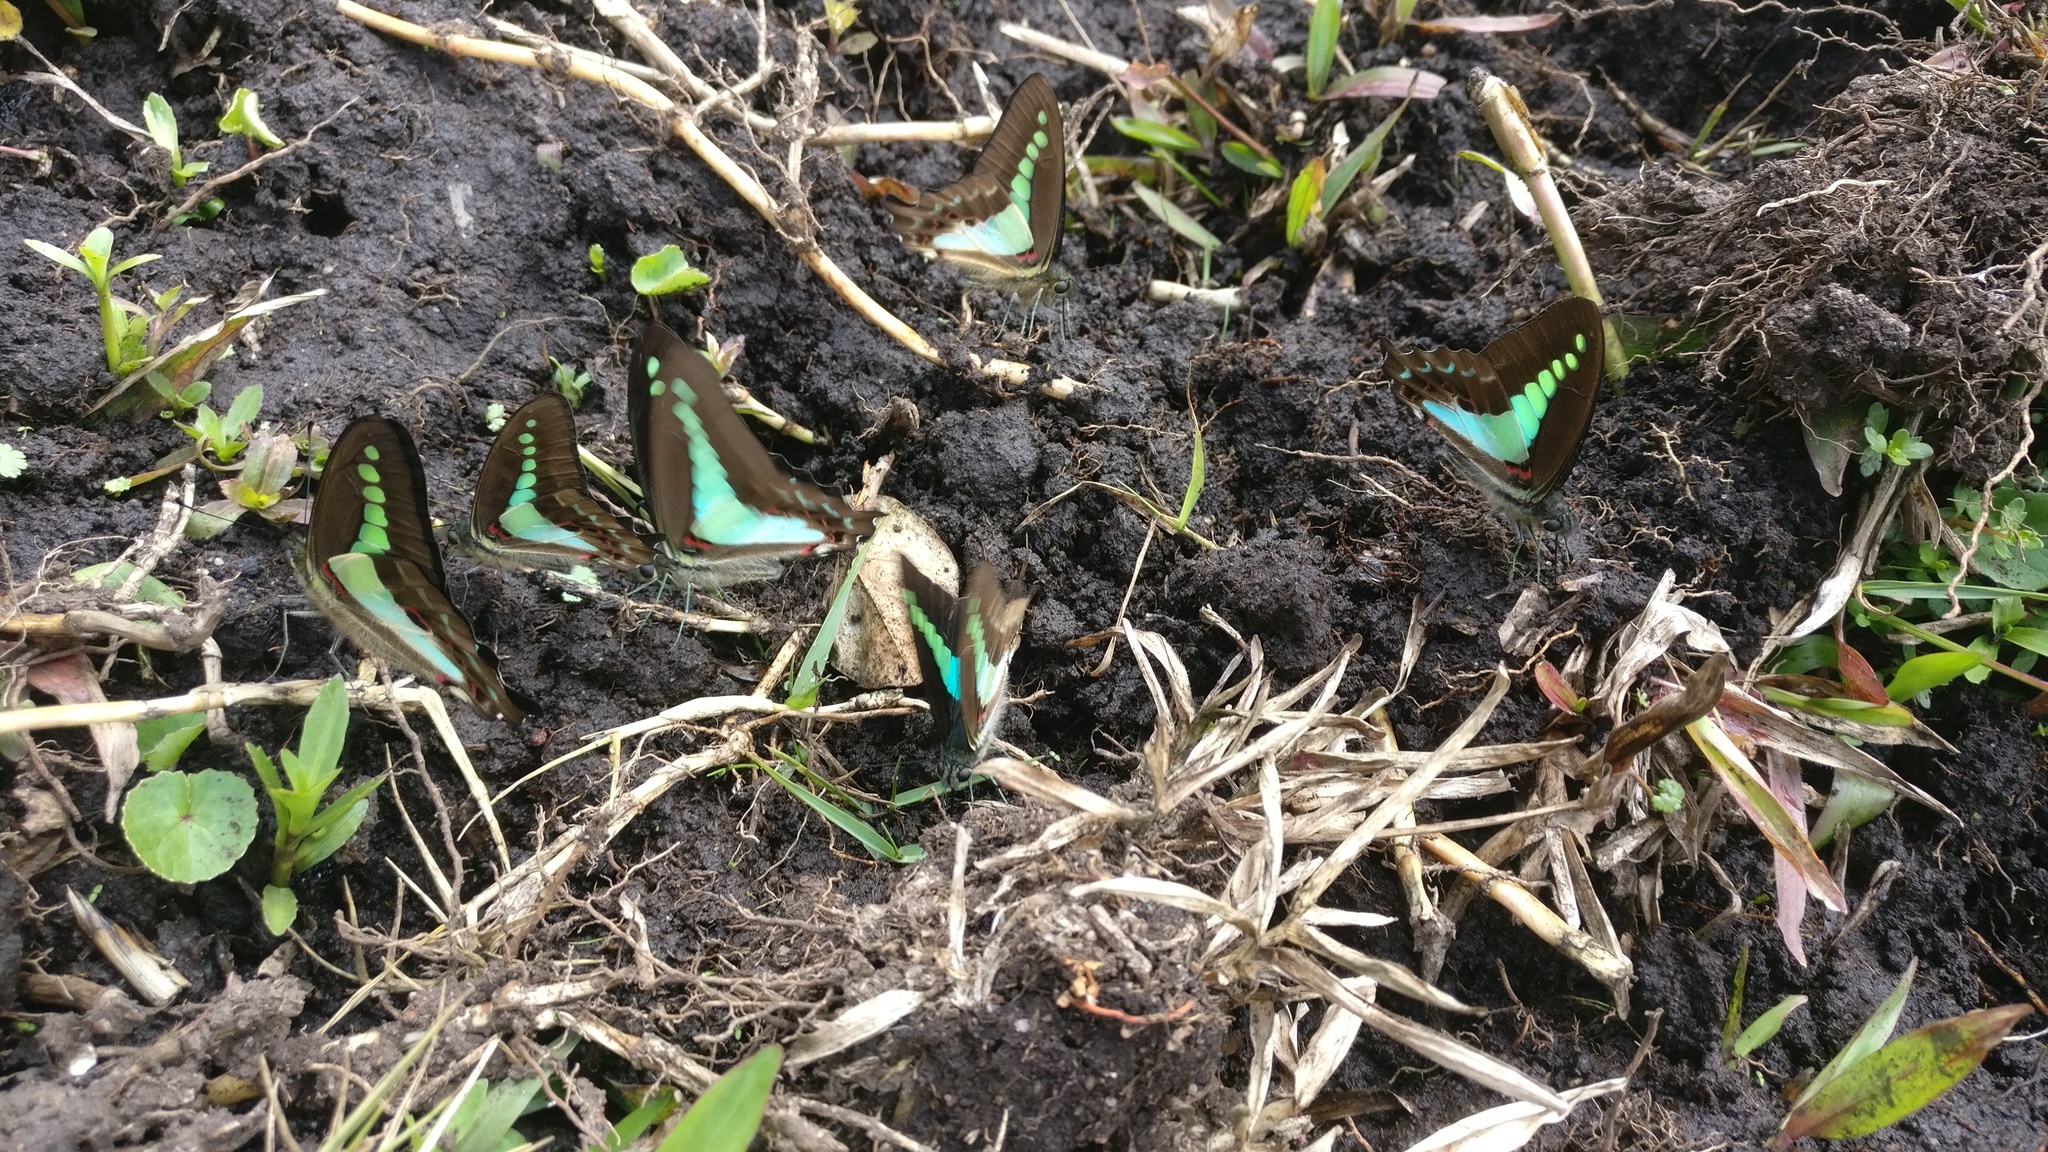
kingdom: Animalia
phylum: Arthropoda
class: Insecta
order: Lepidoptera
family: Papilionidae
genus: Graphium
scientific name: Graphium
